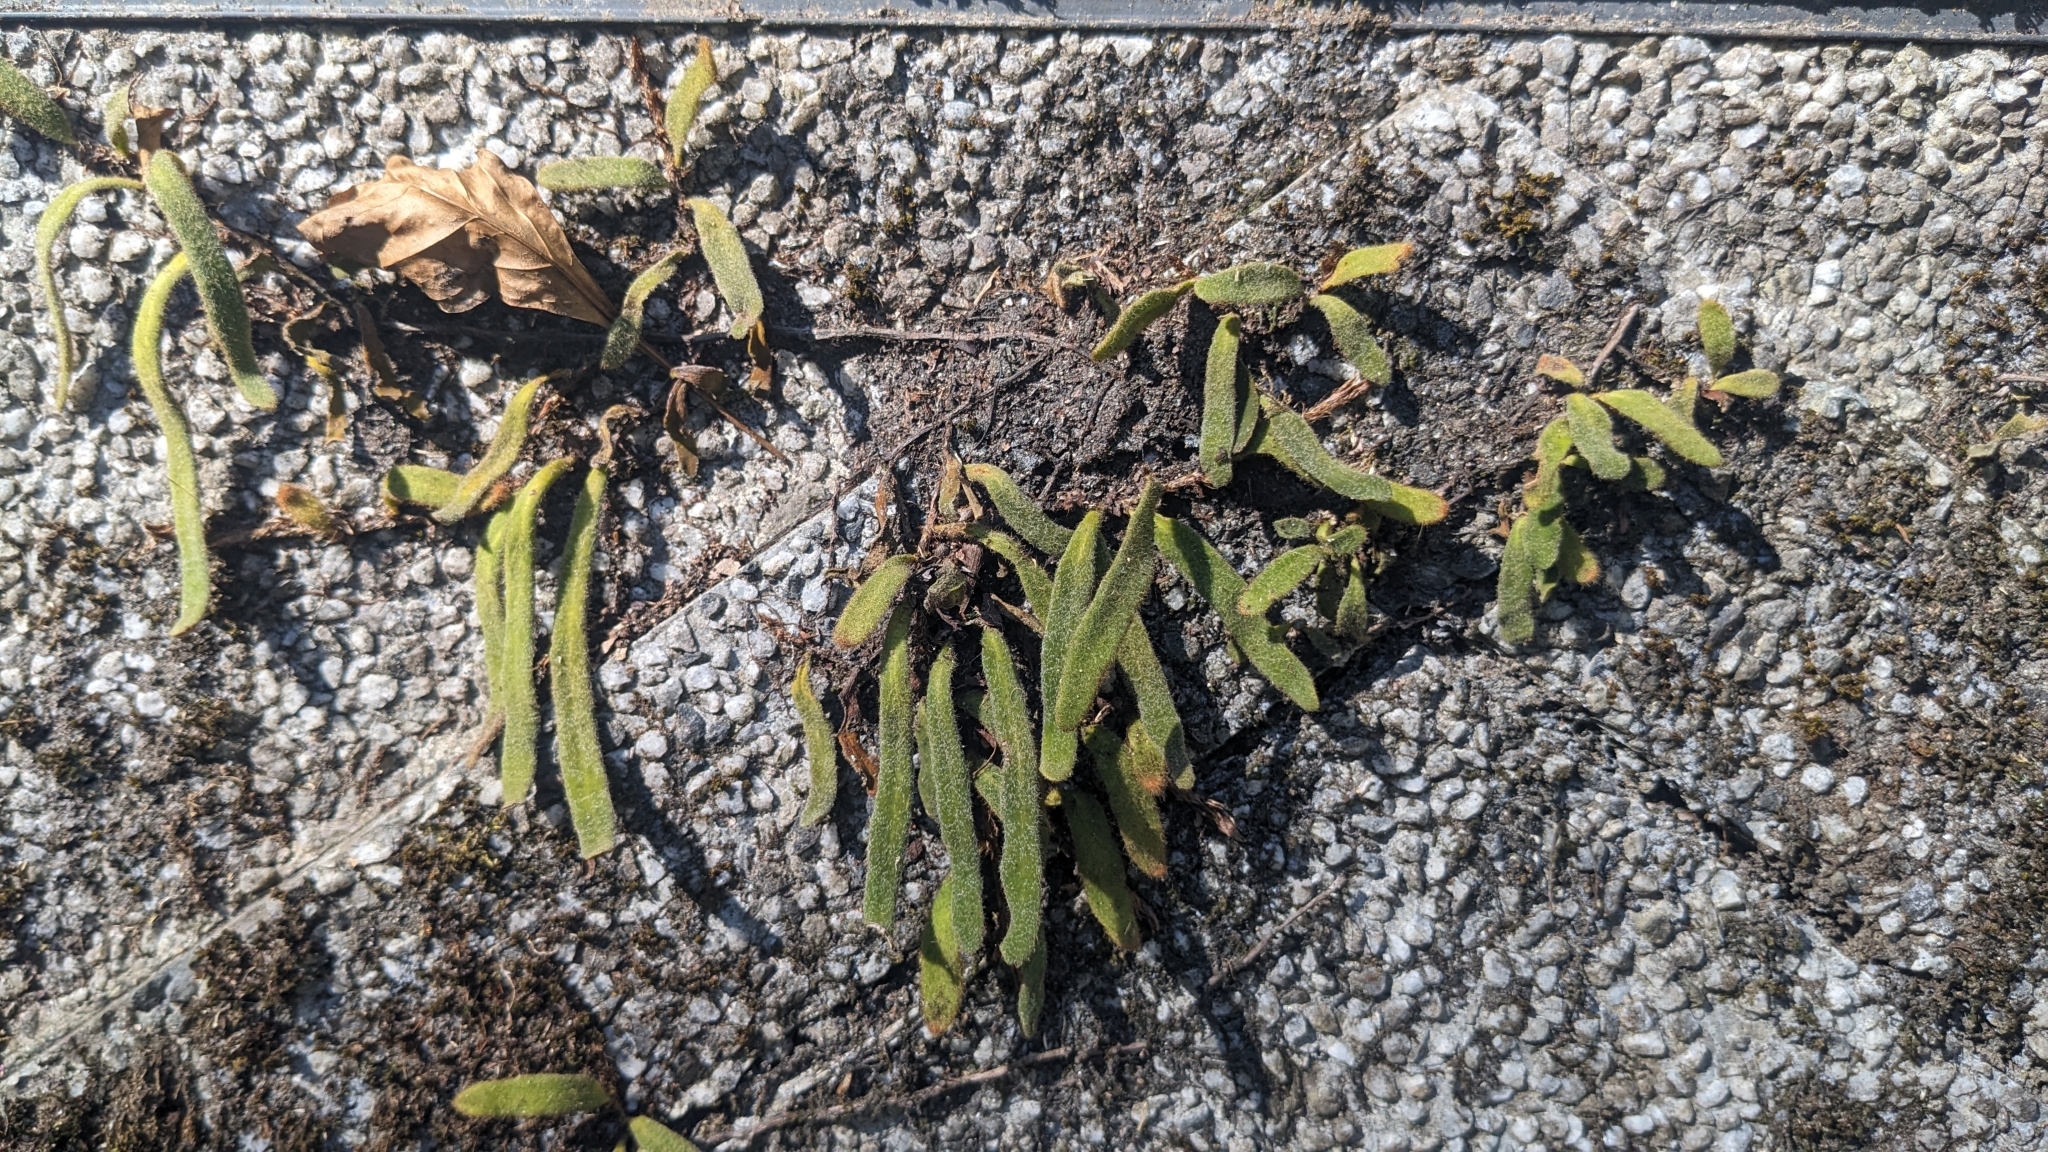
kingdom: Plantae
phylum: Tracheophyta
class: Polypodiopsida
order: Polypodiales
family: Polypodiaceae
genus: Pyrrosia
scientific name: Pyrrosia linearifolia
